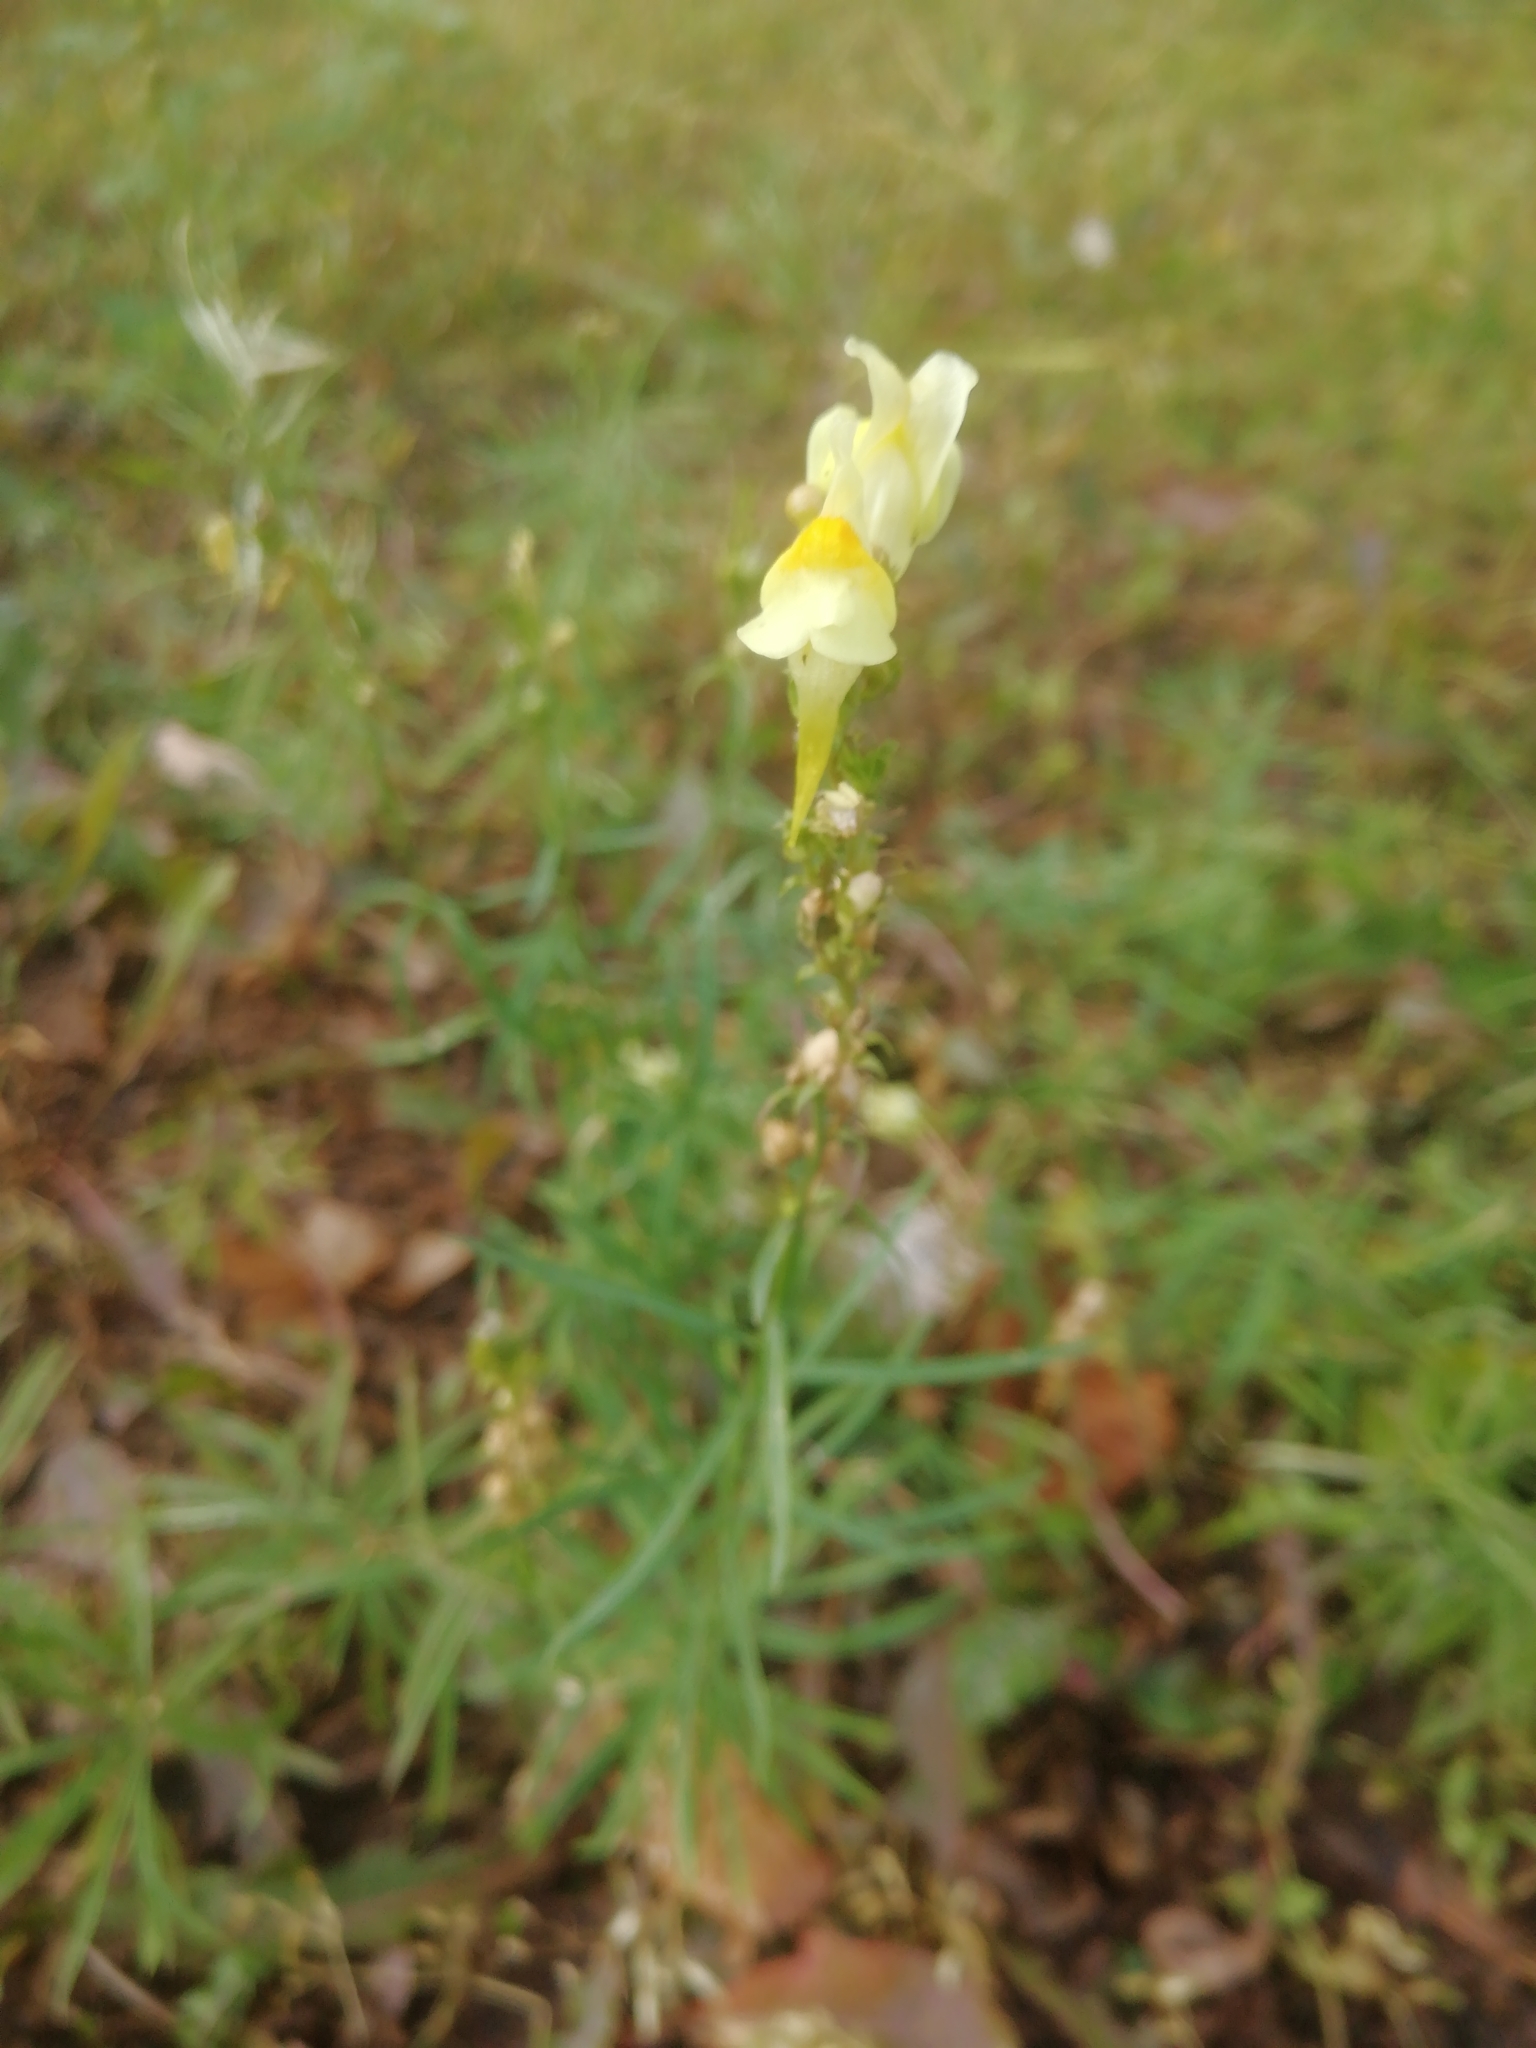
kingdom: Plantae
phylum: Tracheophyta
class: Magnoliopsida
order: Lamiales
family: Plantaginaceae
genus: Linaria
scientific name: Linaria vulgaris
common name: Butter and eggs
